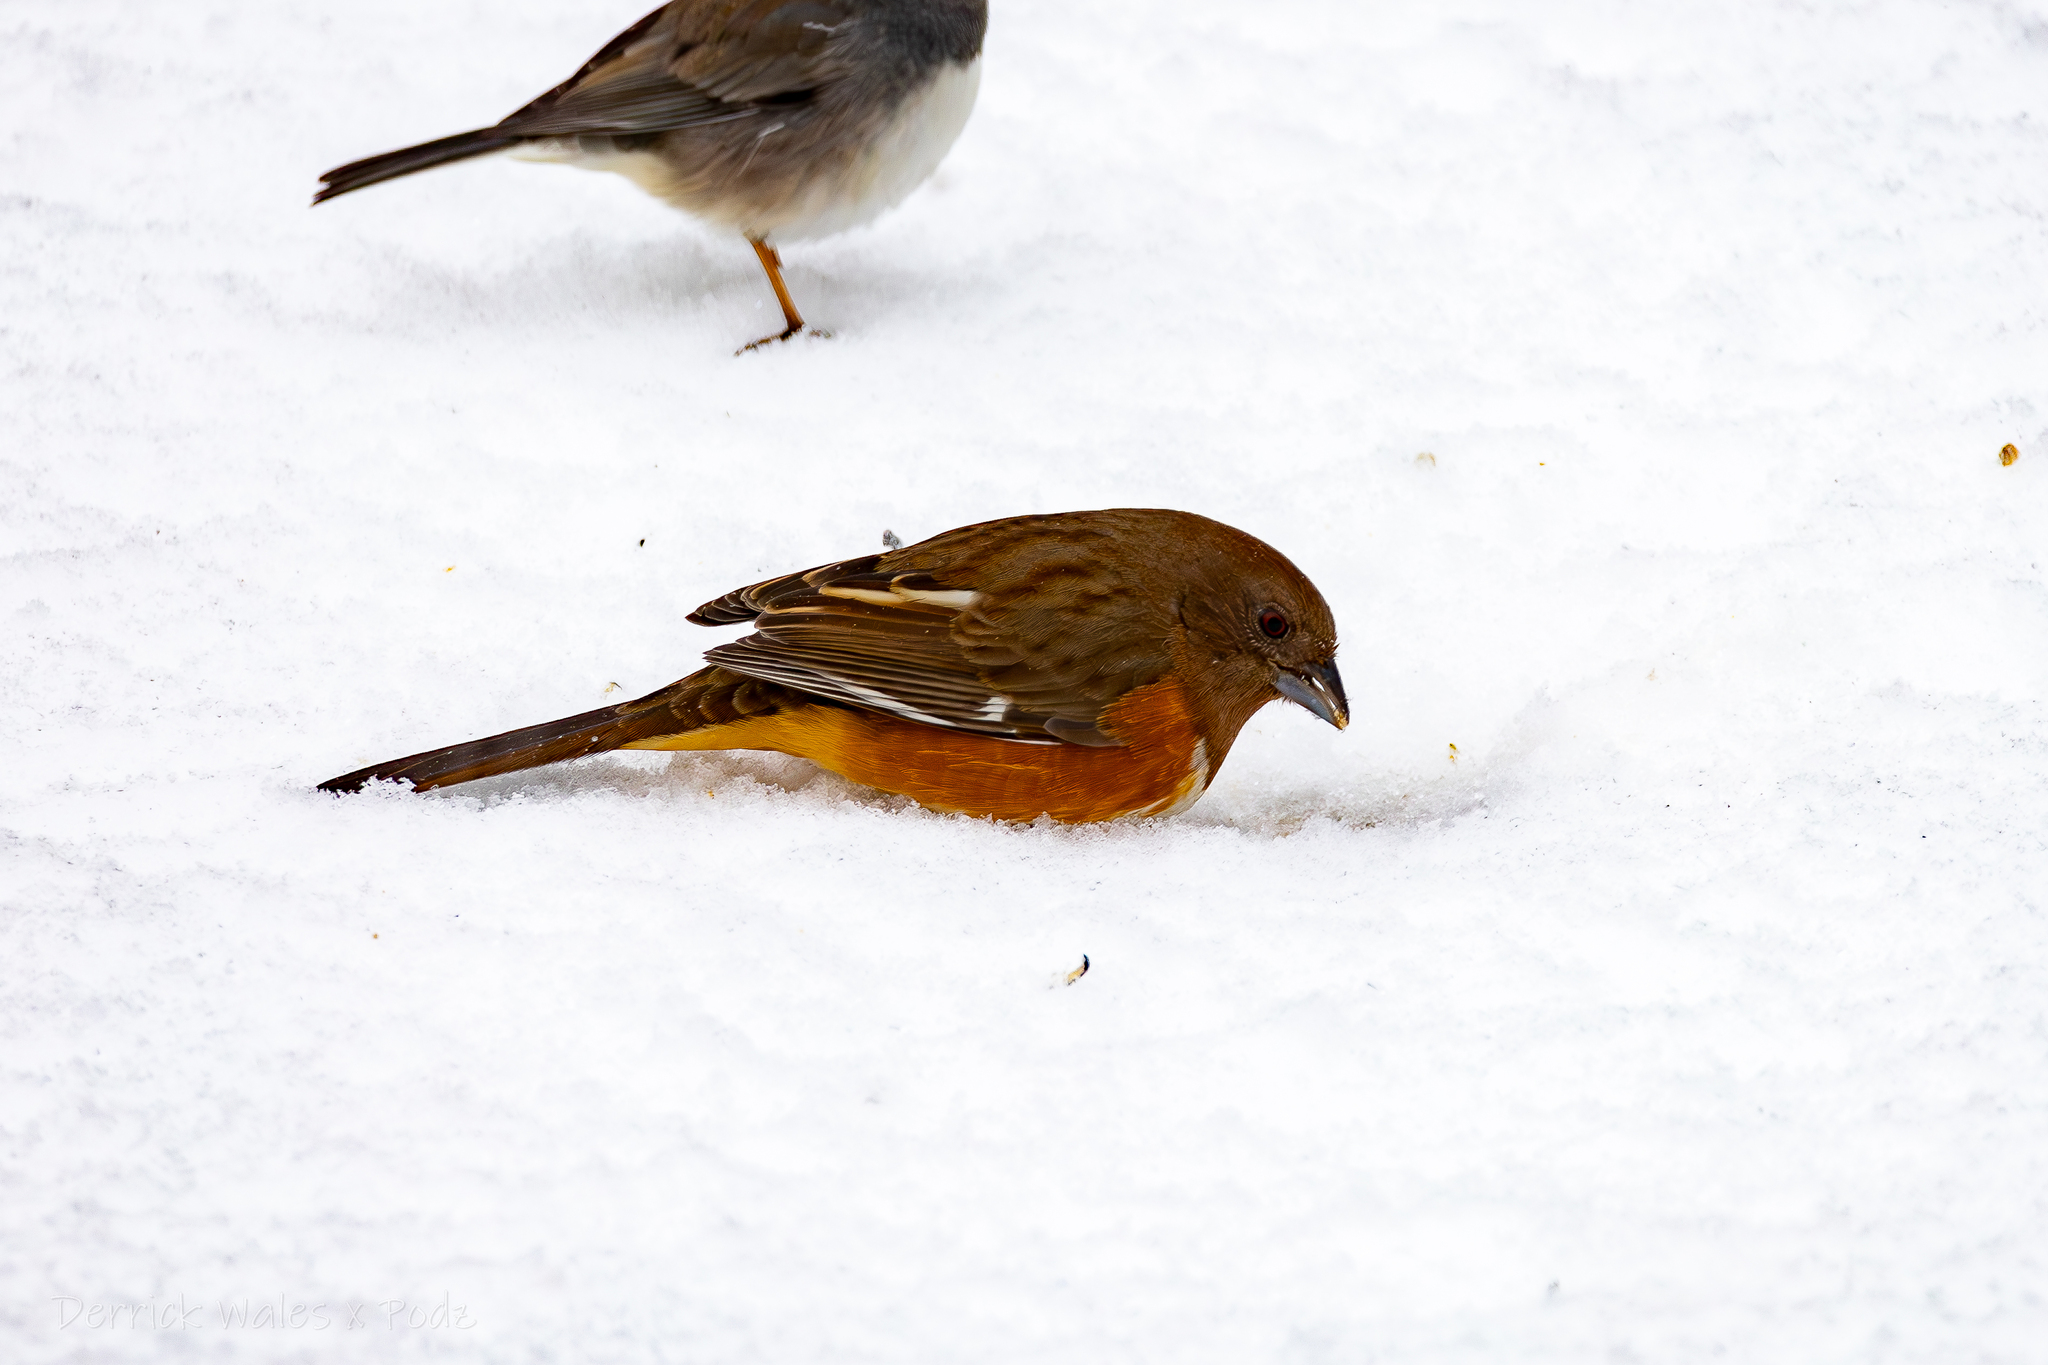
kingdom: Animalia
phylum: Chordata
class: Aves
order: Passeriformes
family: Passerellidae
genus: Pipilo
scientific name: Pipilo erythrophthalmus
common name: Eastern towhee
